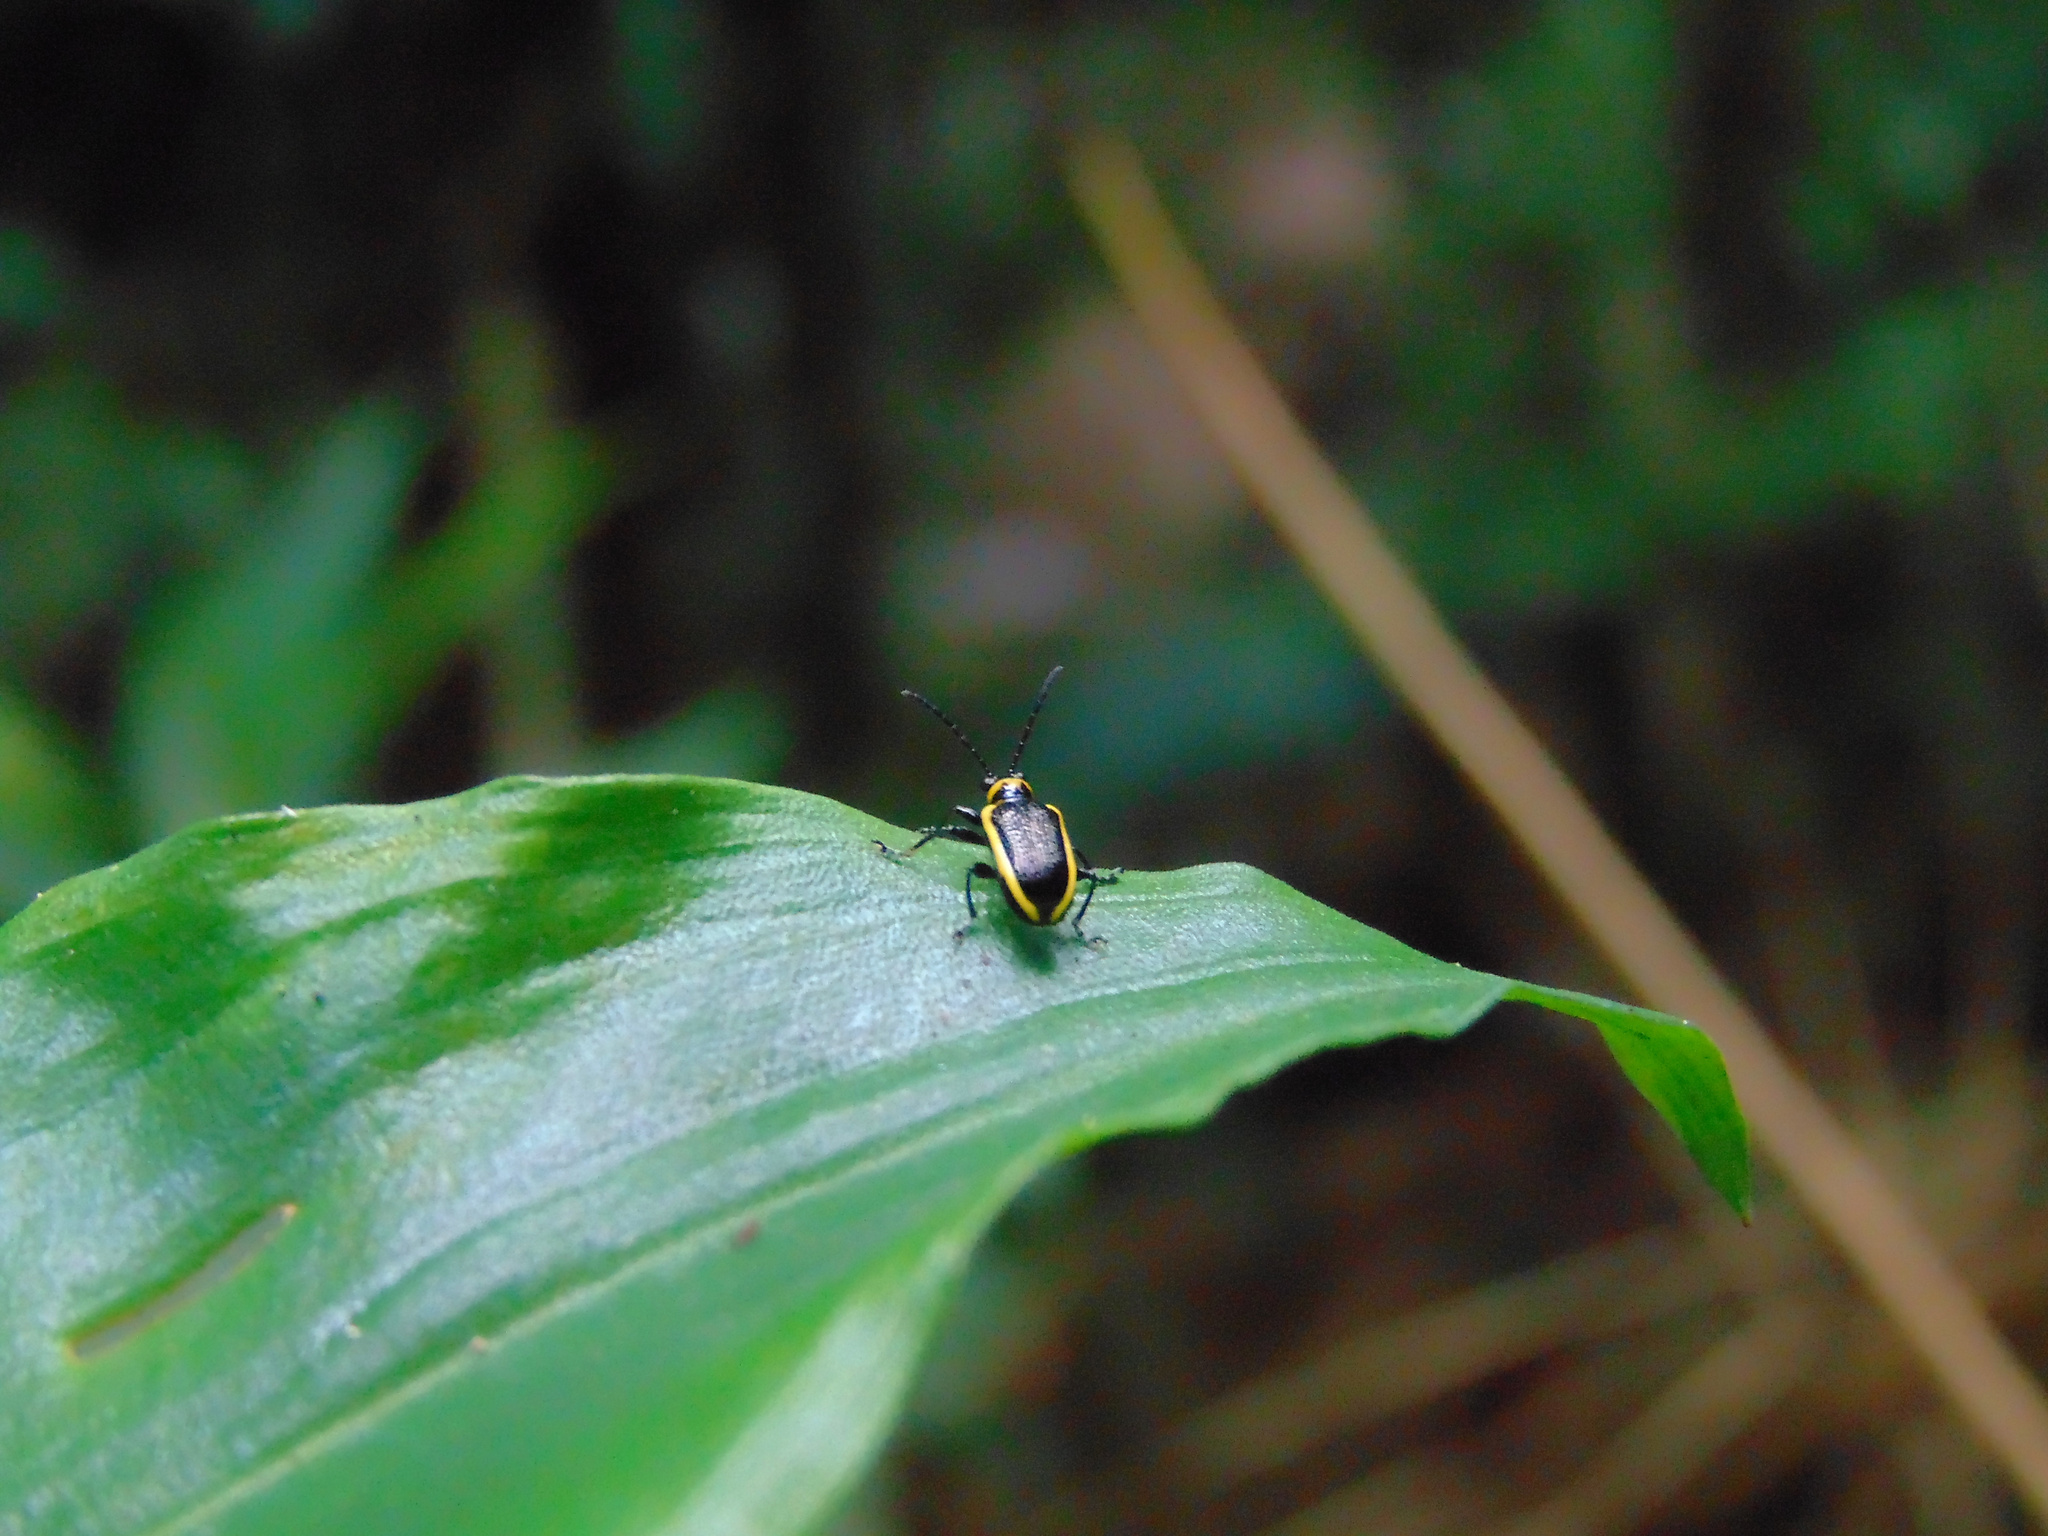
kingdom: Animalia
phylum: Arthropoda
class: Insecta
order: Coleoptera
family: Chrysomelidae
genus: Neolema
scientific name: Neolema
